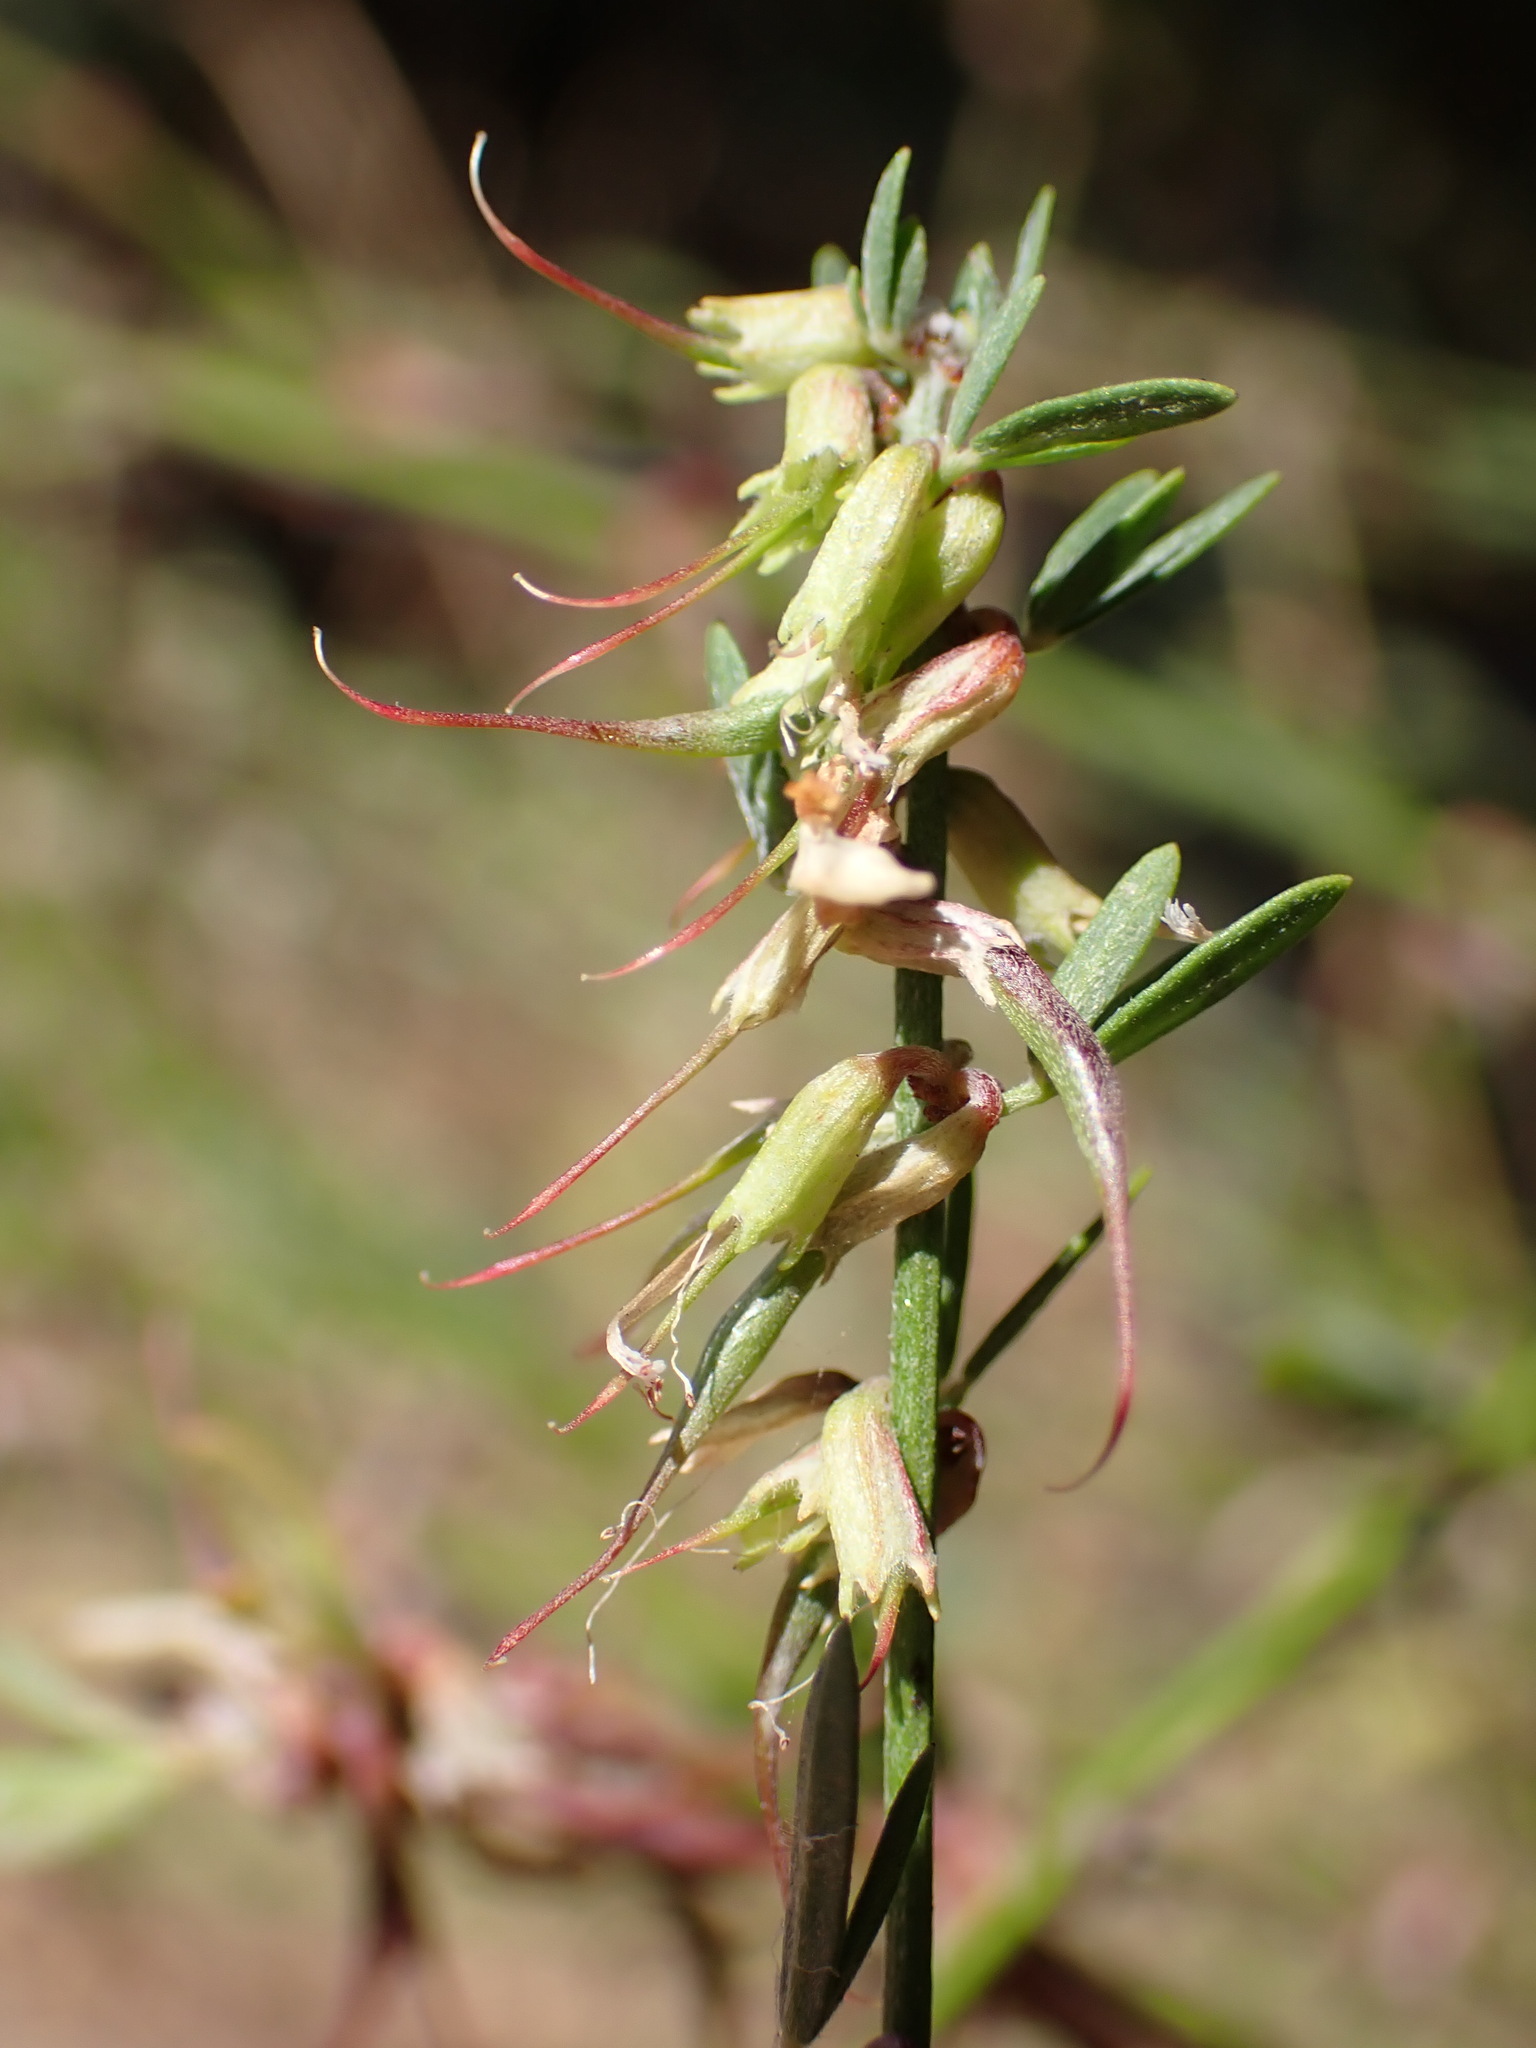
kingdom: Plantae
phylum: Tracheophyta
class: Magnoliopsida
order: Fabales
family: Fabaceae
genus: Acmispon
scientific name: Acmispon glaber
